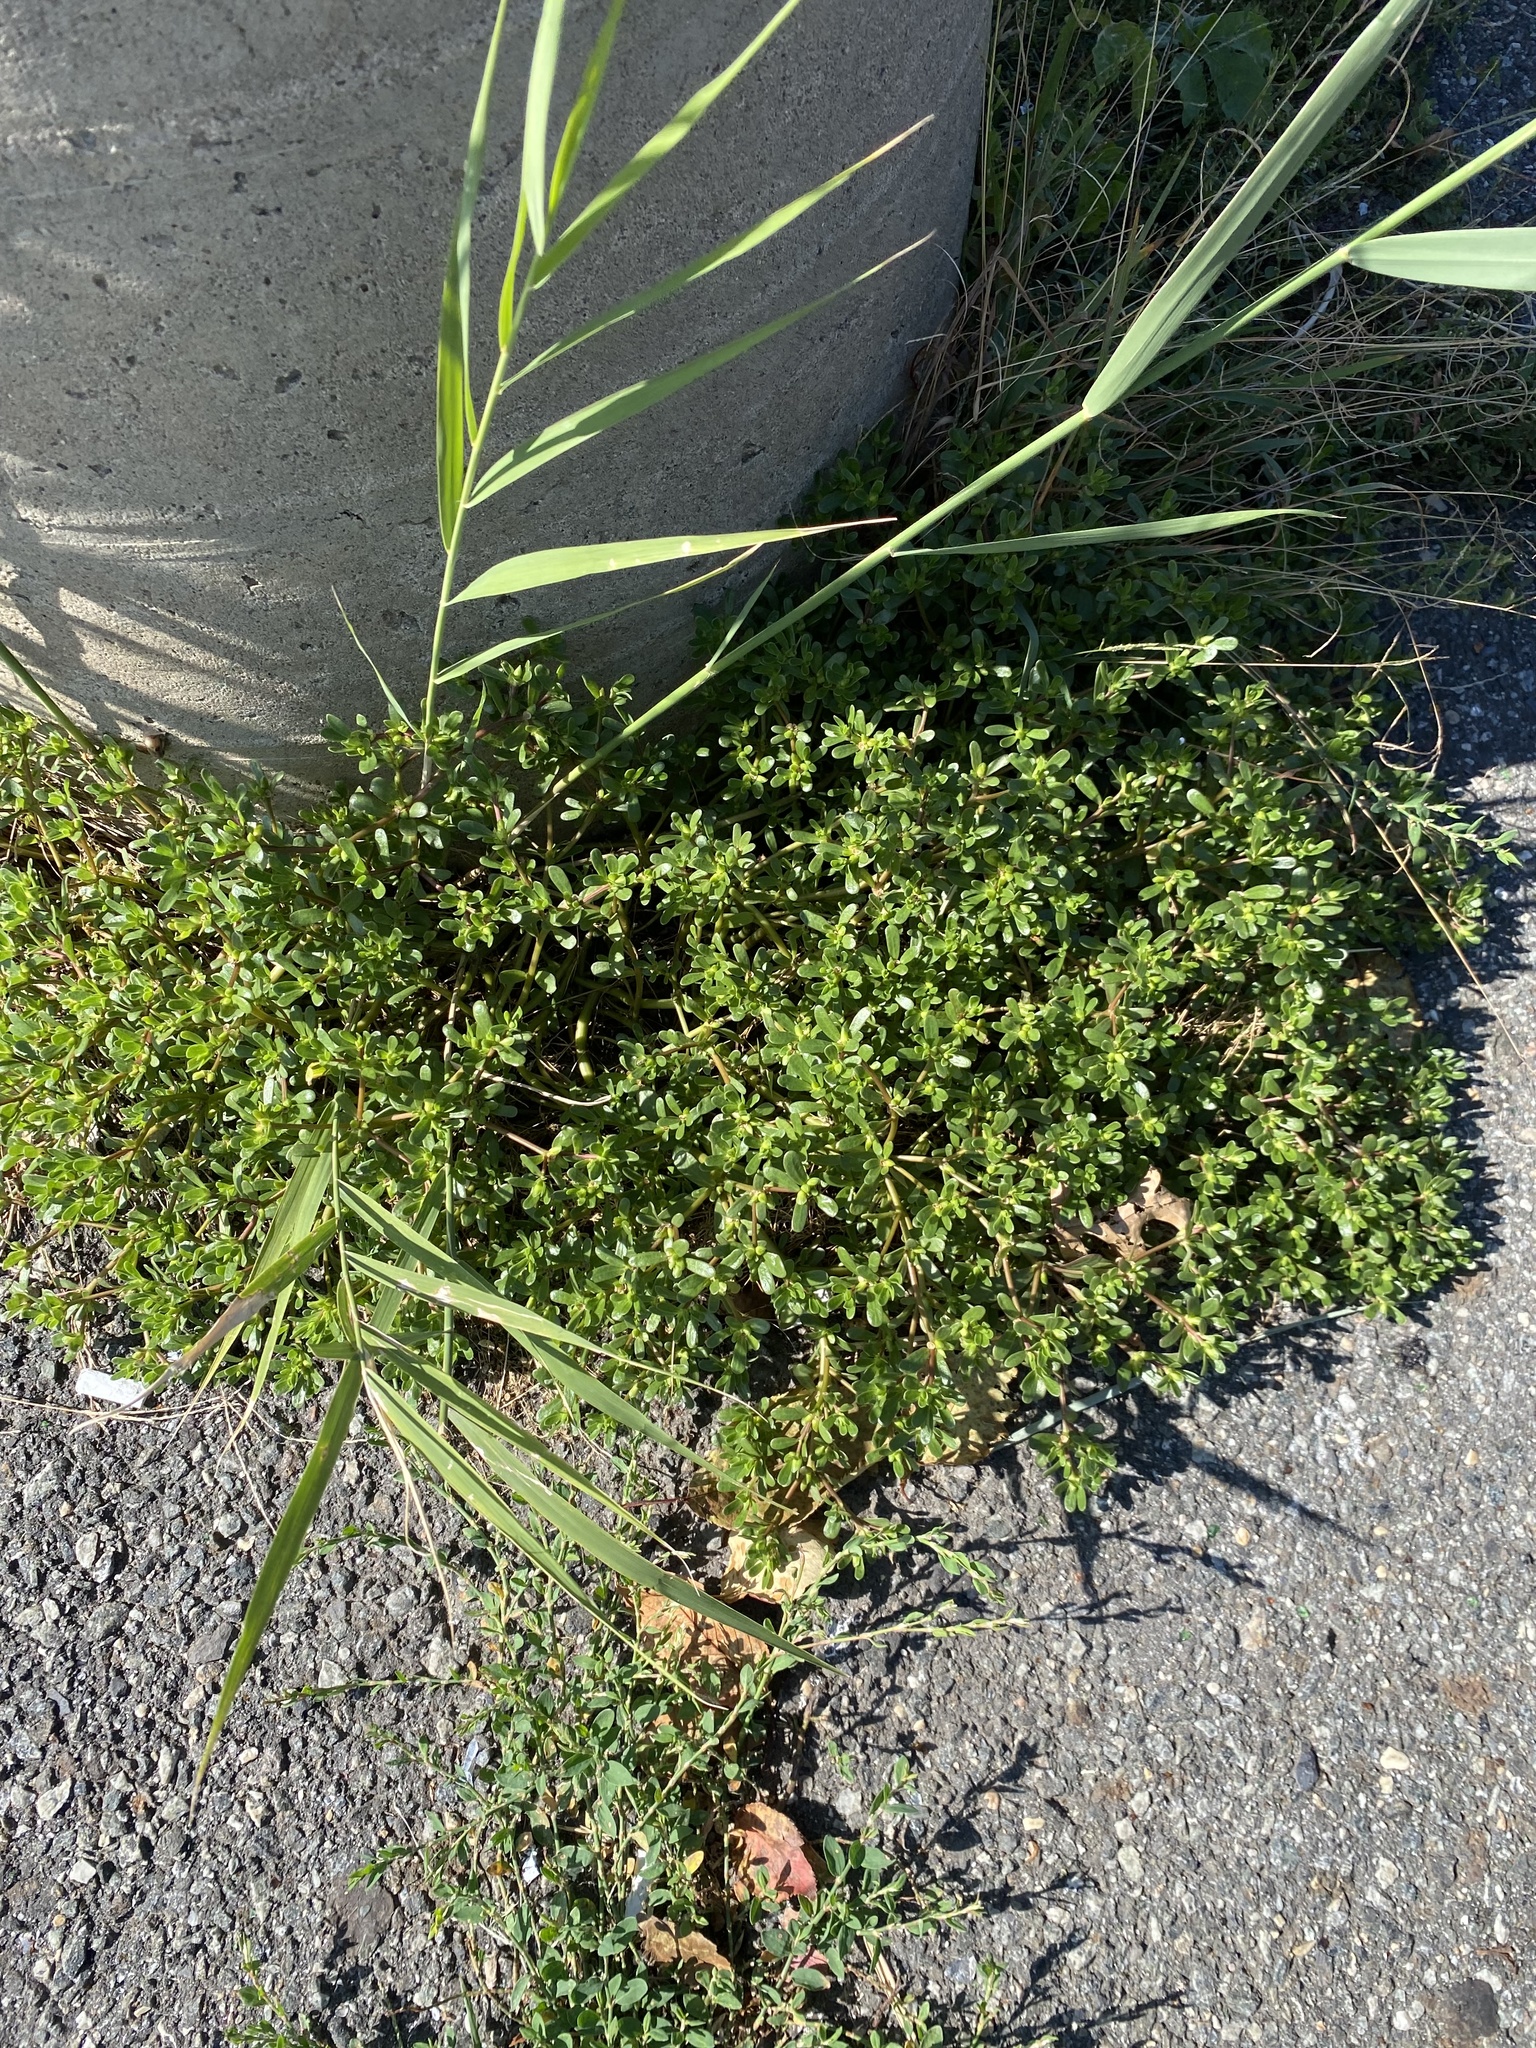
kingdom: Plantae
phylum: Tracheophyta
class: Magnoliopsida
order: Caryophyllales
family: Portulacaceae
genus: Portulaca
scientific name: Portulaca oleracea
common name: Common purslane
